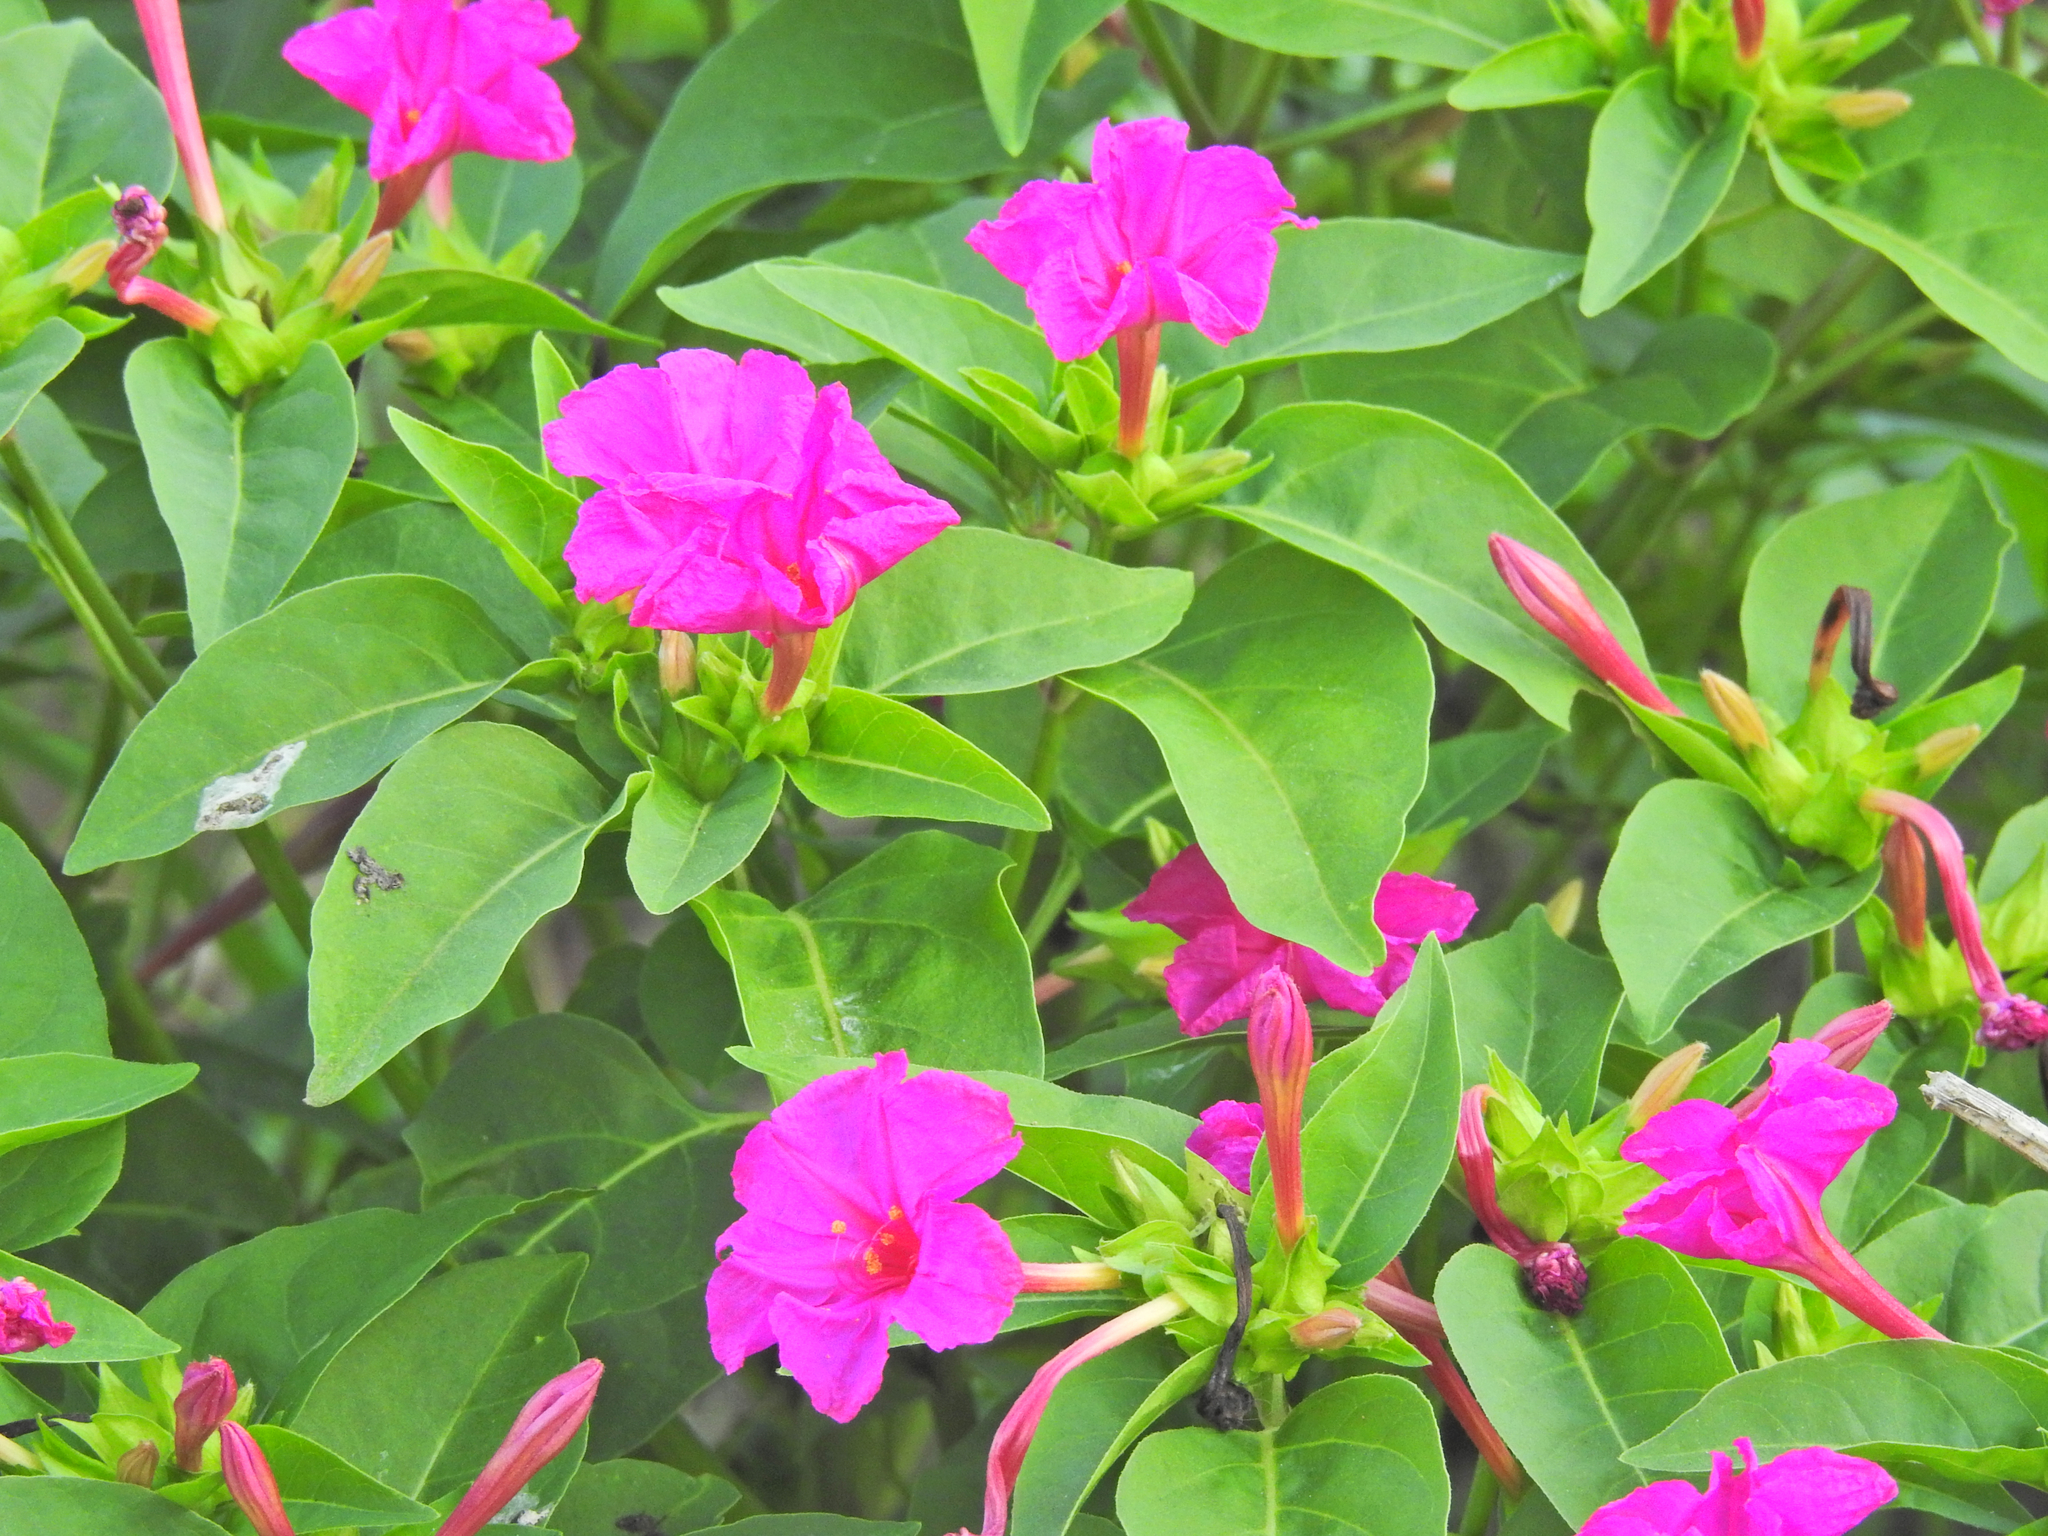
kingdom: Plantae
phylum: Tracheophyta
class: Magnoliopsida
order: Caryophyllales
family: Nyctaginaceae
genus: Mirabilis
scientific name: Mirabilis jalapa
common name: Marvel-of-peru
